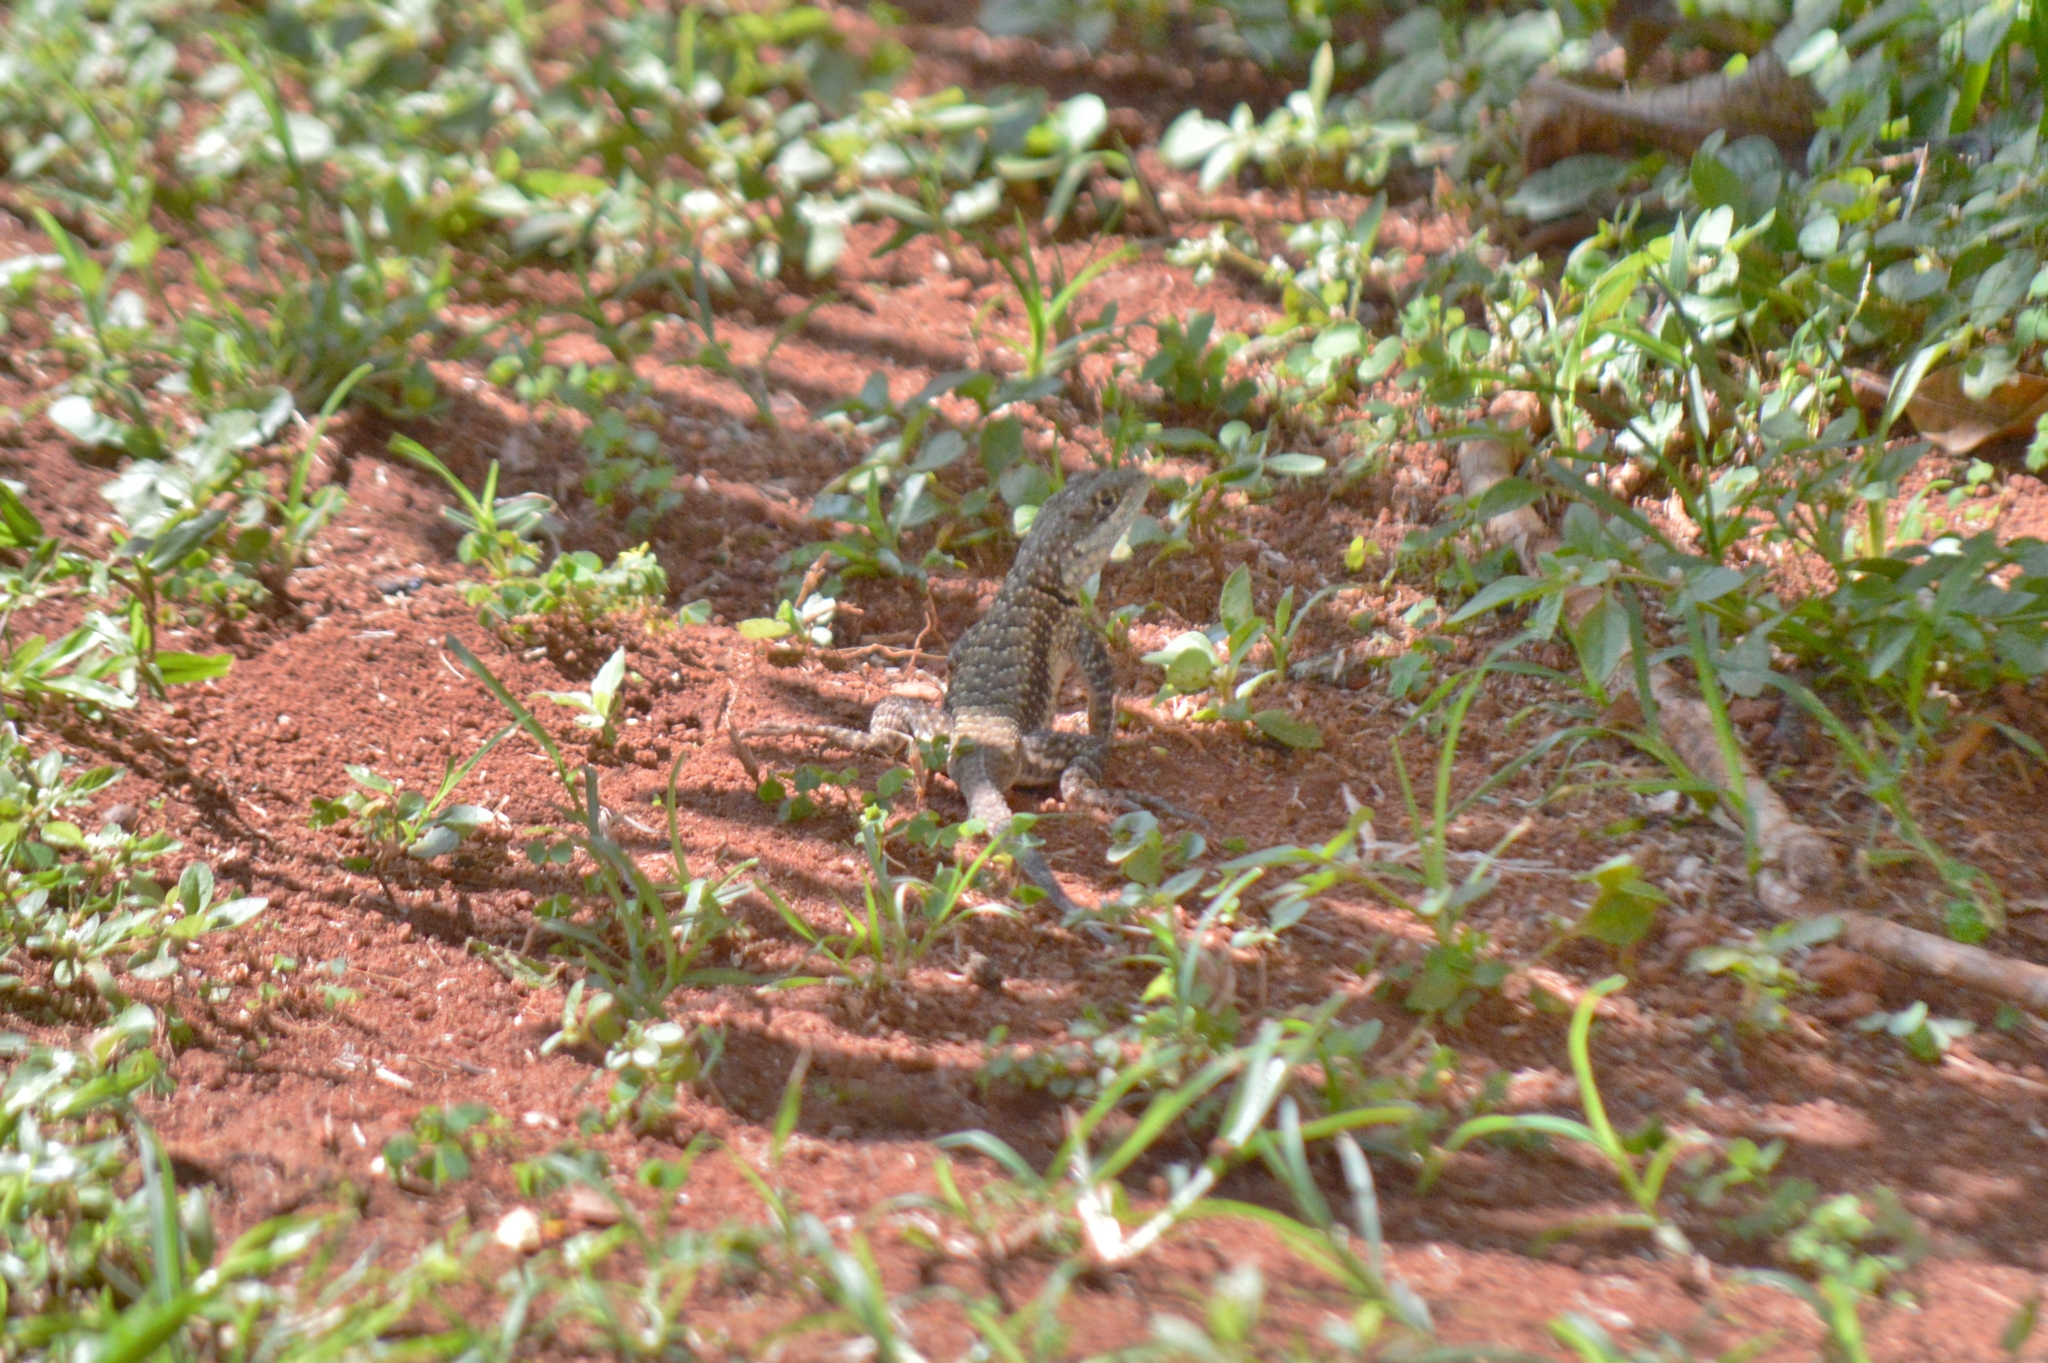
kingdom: Animalia
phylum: Chordata
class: Squamata
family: Tropiduridae
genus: Tropidurus
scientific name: Tropidurus torquatus
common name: Amazon lava lizard
